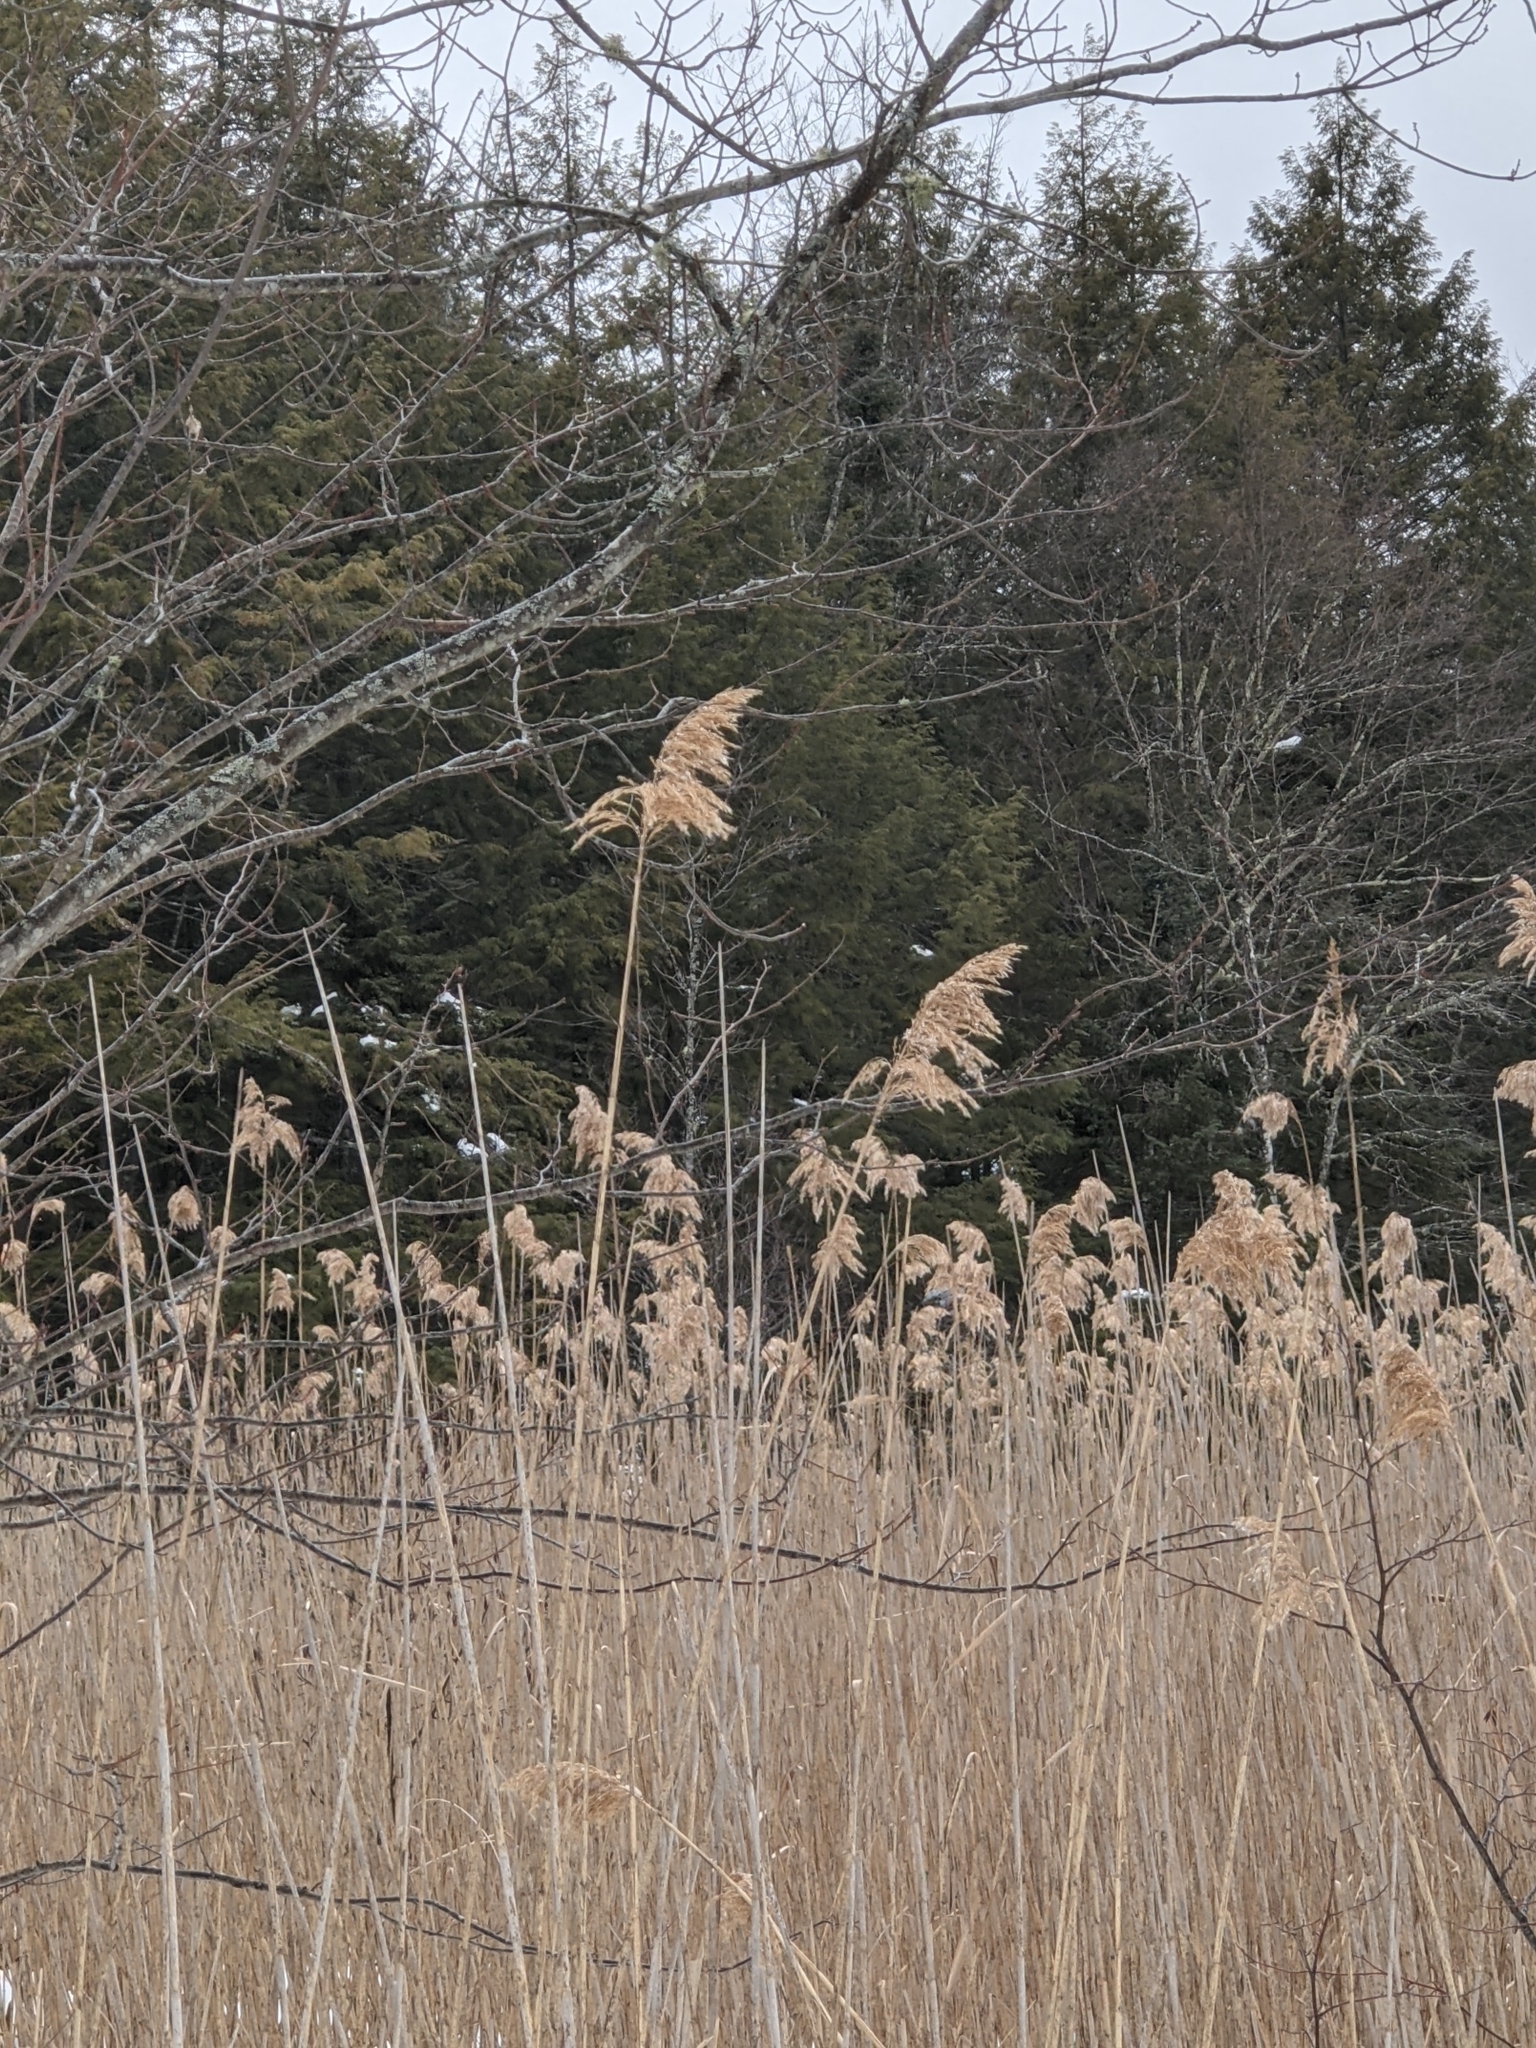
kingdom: Plantae
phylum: Tracheophyta
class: Liliopsida
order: Poales
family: Poaceae
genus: Phragmites
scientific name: Phragmites australis
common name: Common reed
